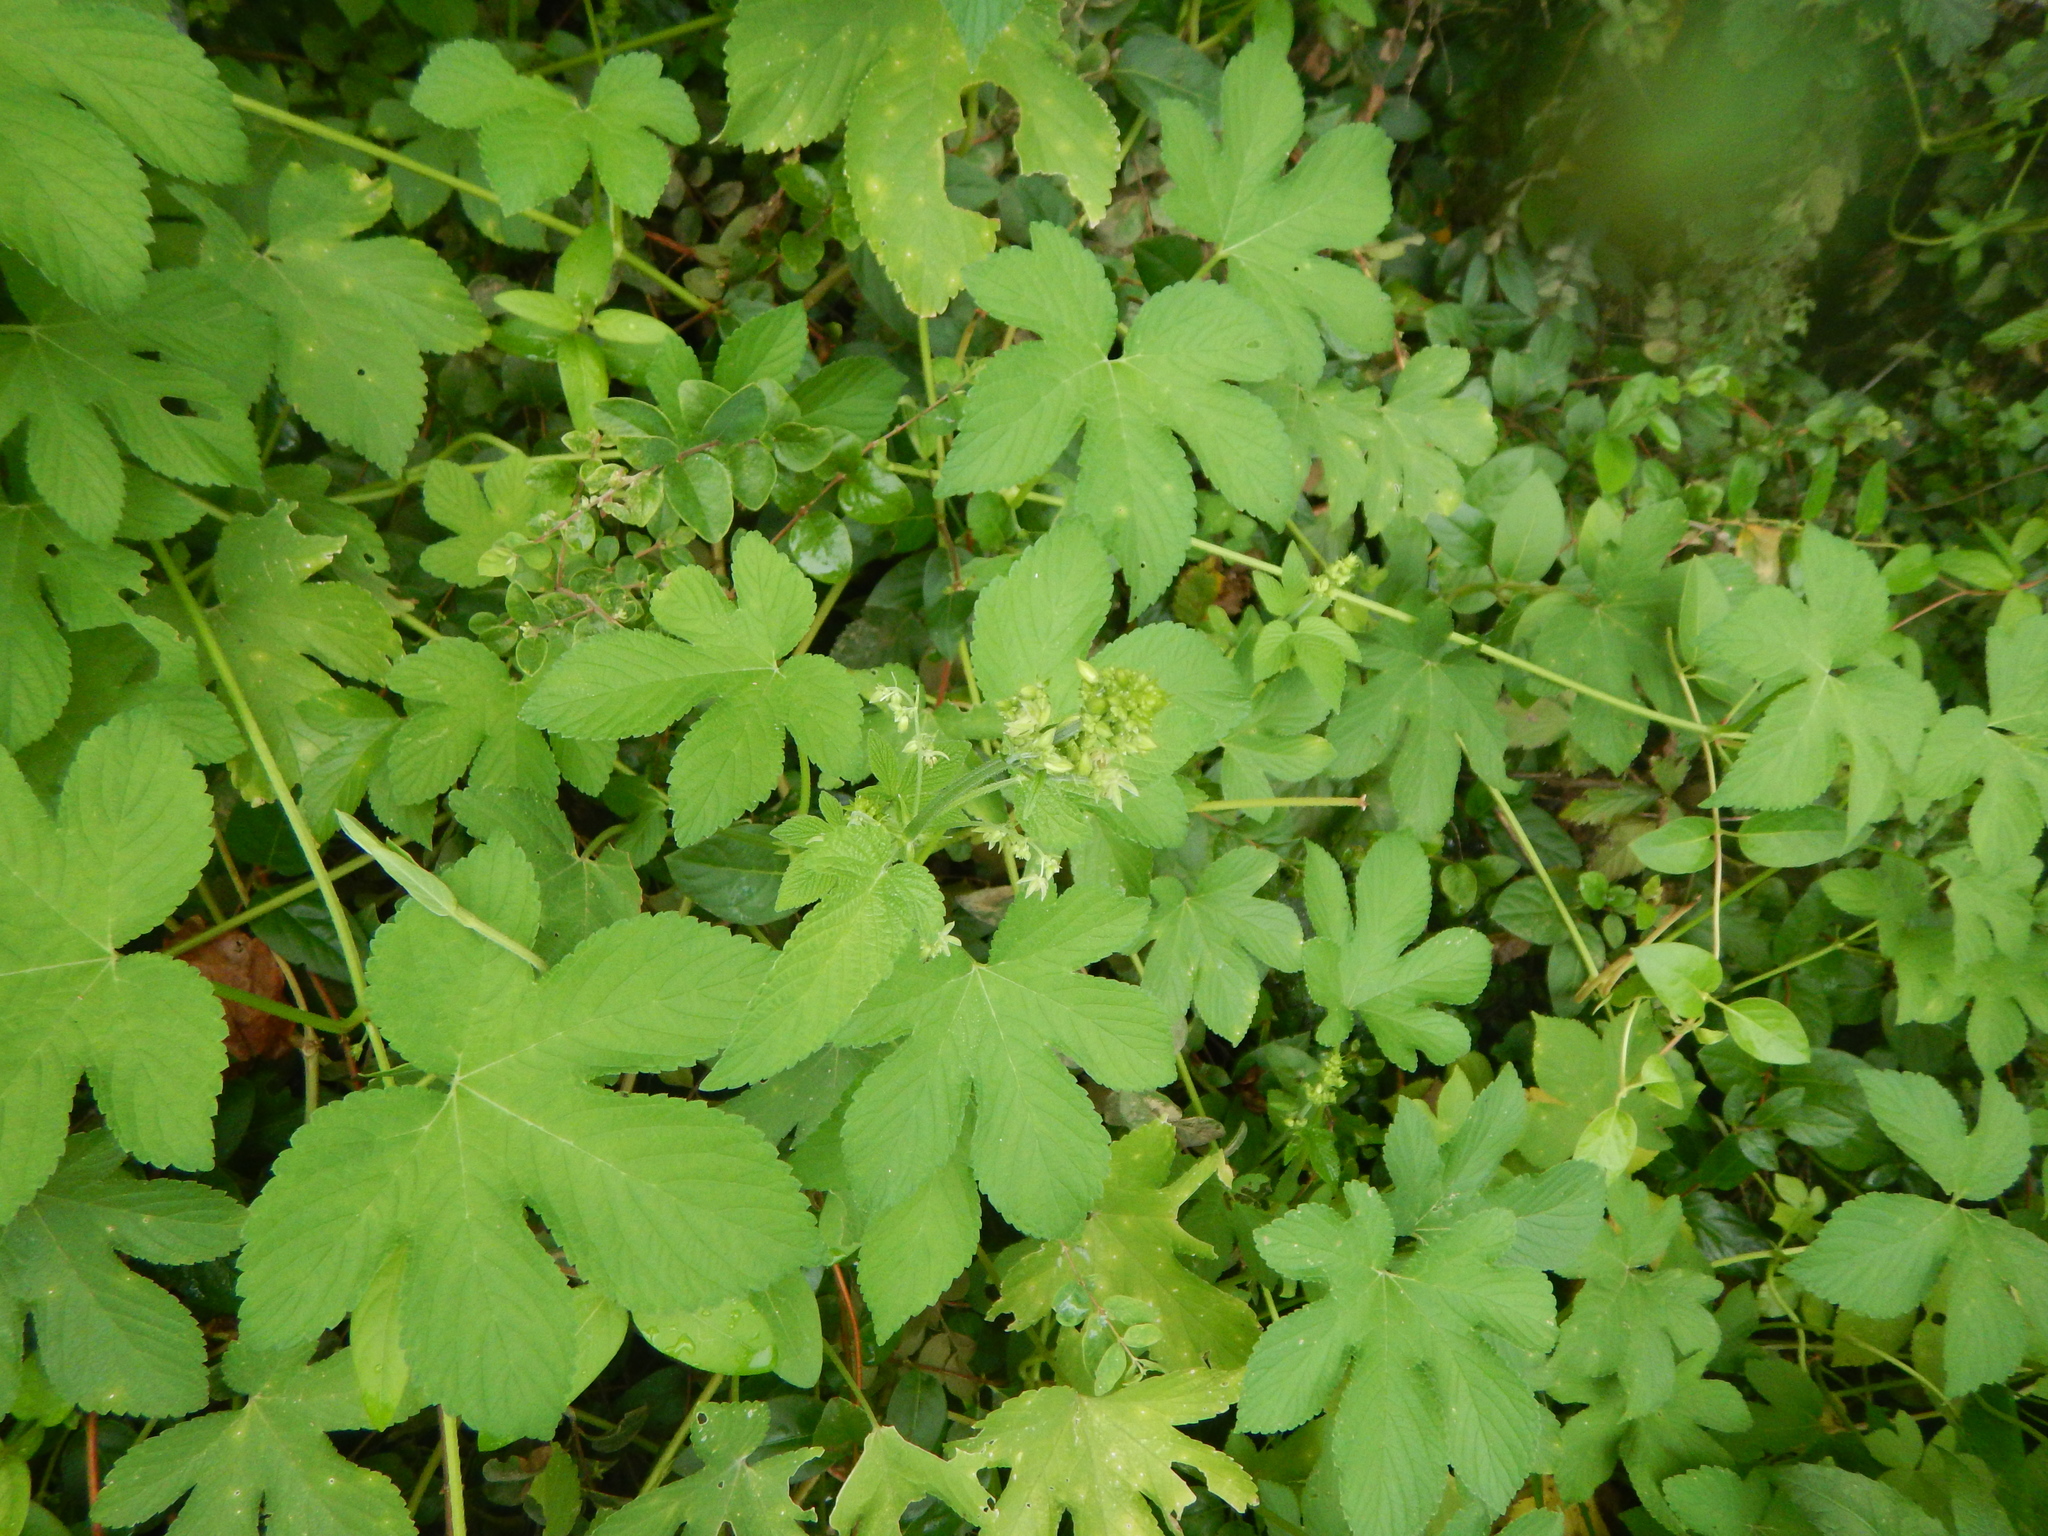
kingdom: Plantae
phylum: Tracheophyta
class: Magnoliopsida
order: Rosales
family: Cannabaceae
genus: Humulus
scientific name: Humulus scandens
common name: Japanese hop
